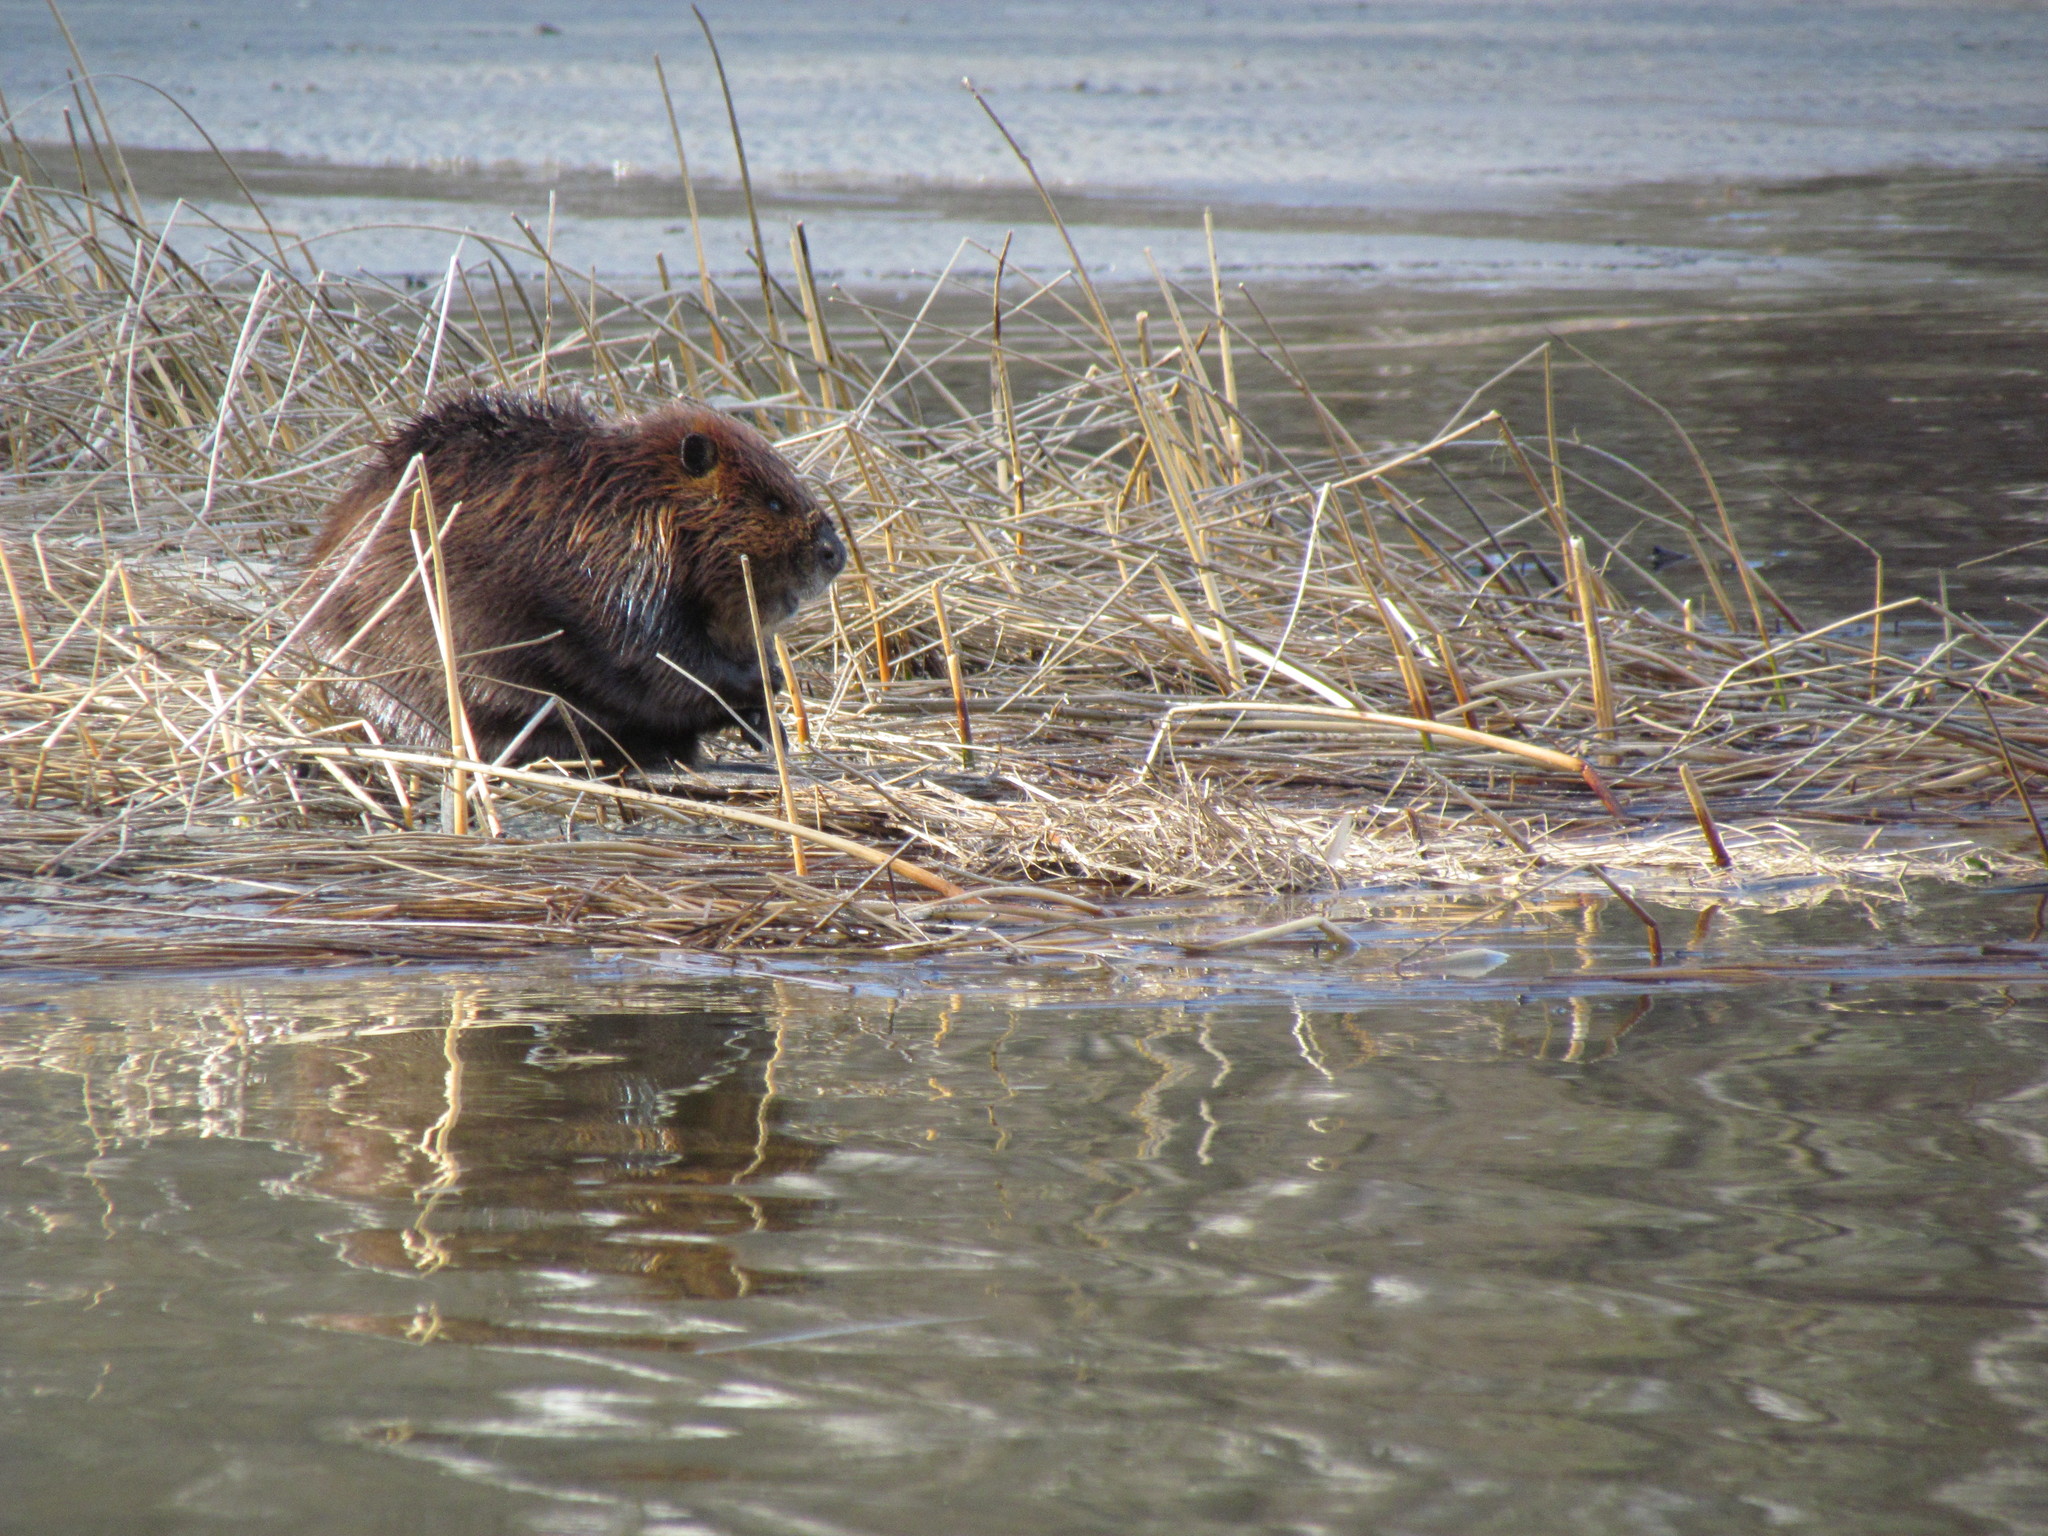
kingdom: Animalia
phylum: Chordata
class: Mammalia
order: Rodentia
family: Castoridae
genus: Castor
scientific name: Castor canadensis
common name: American beaver
